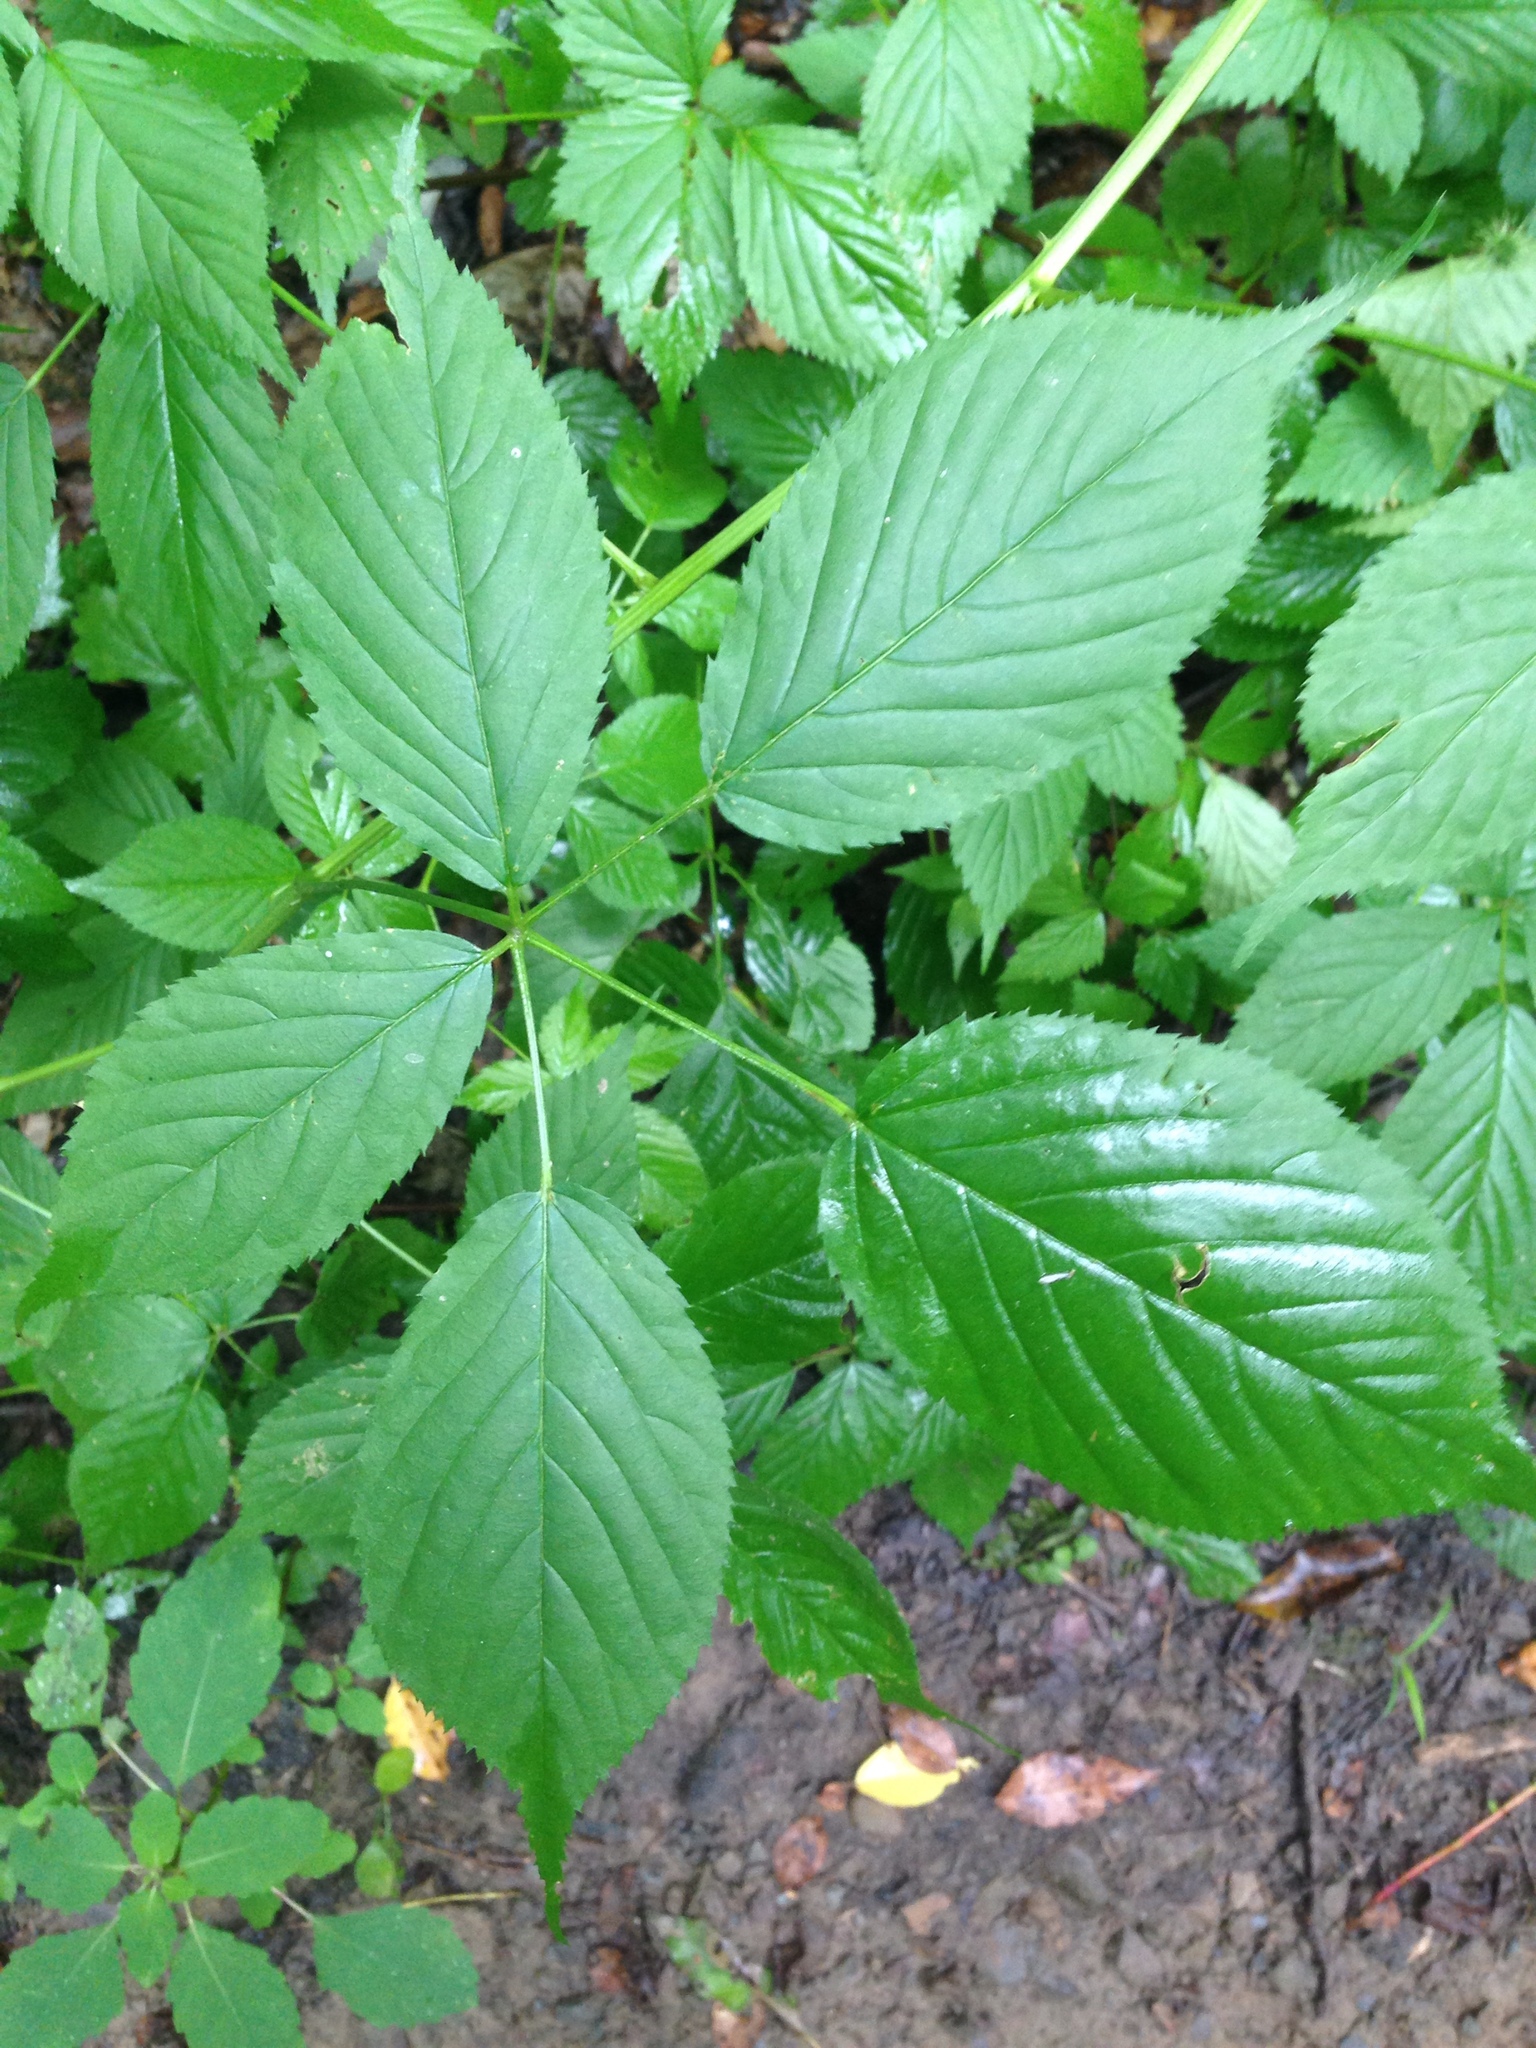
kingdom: Plantae
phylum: Tracheophyta
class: Magnoliopsida
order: Rosales
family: Rosaceae
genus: Rubus
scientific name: Rubus allegheniensis
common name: Allegheny blackberry
